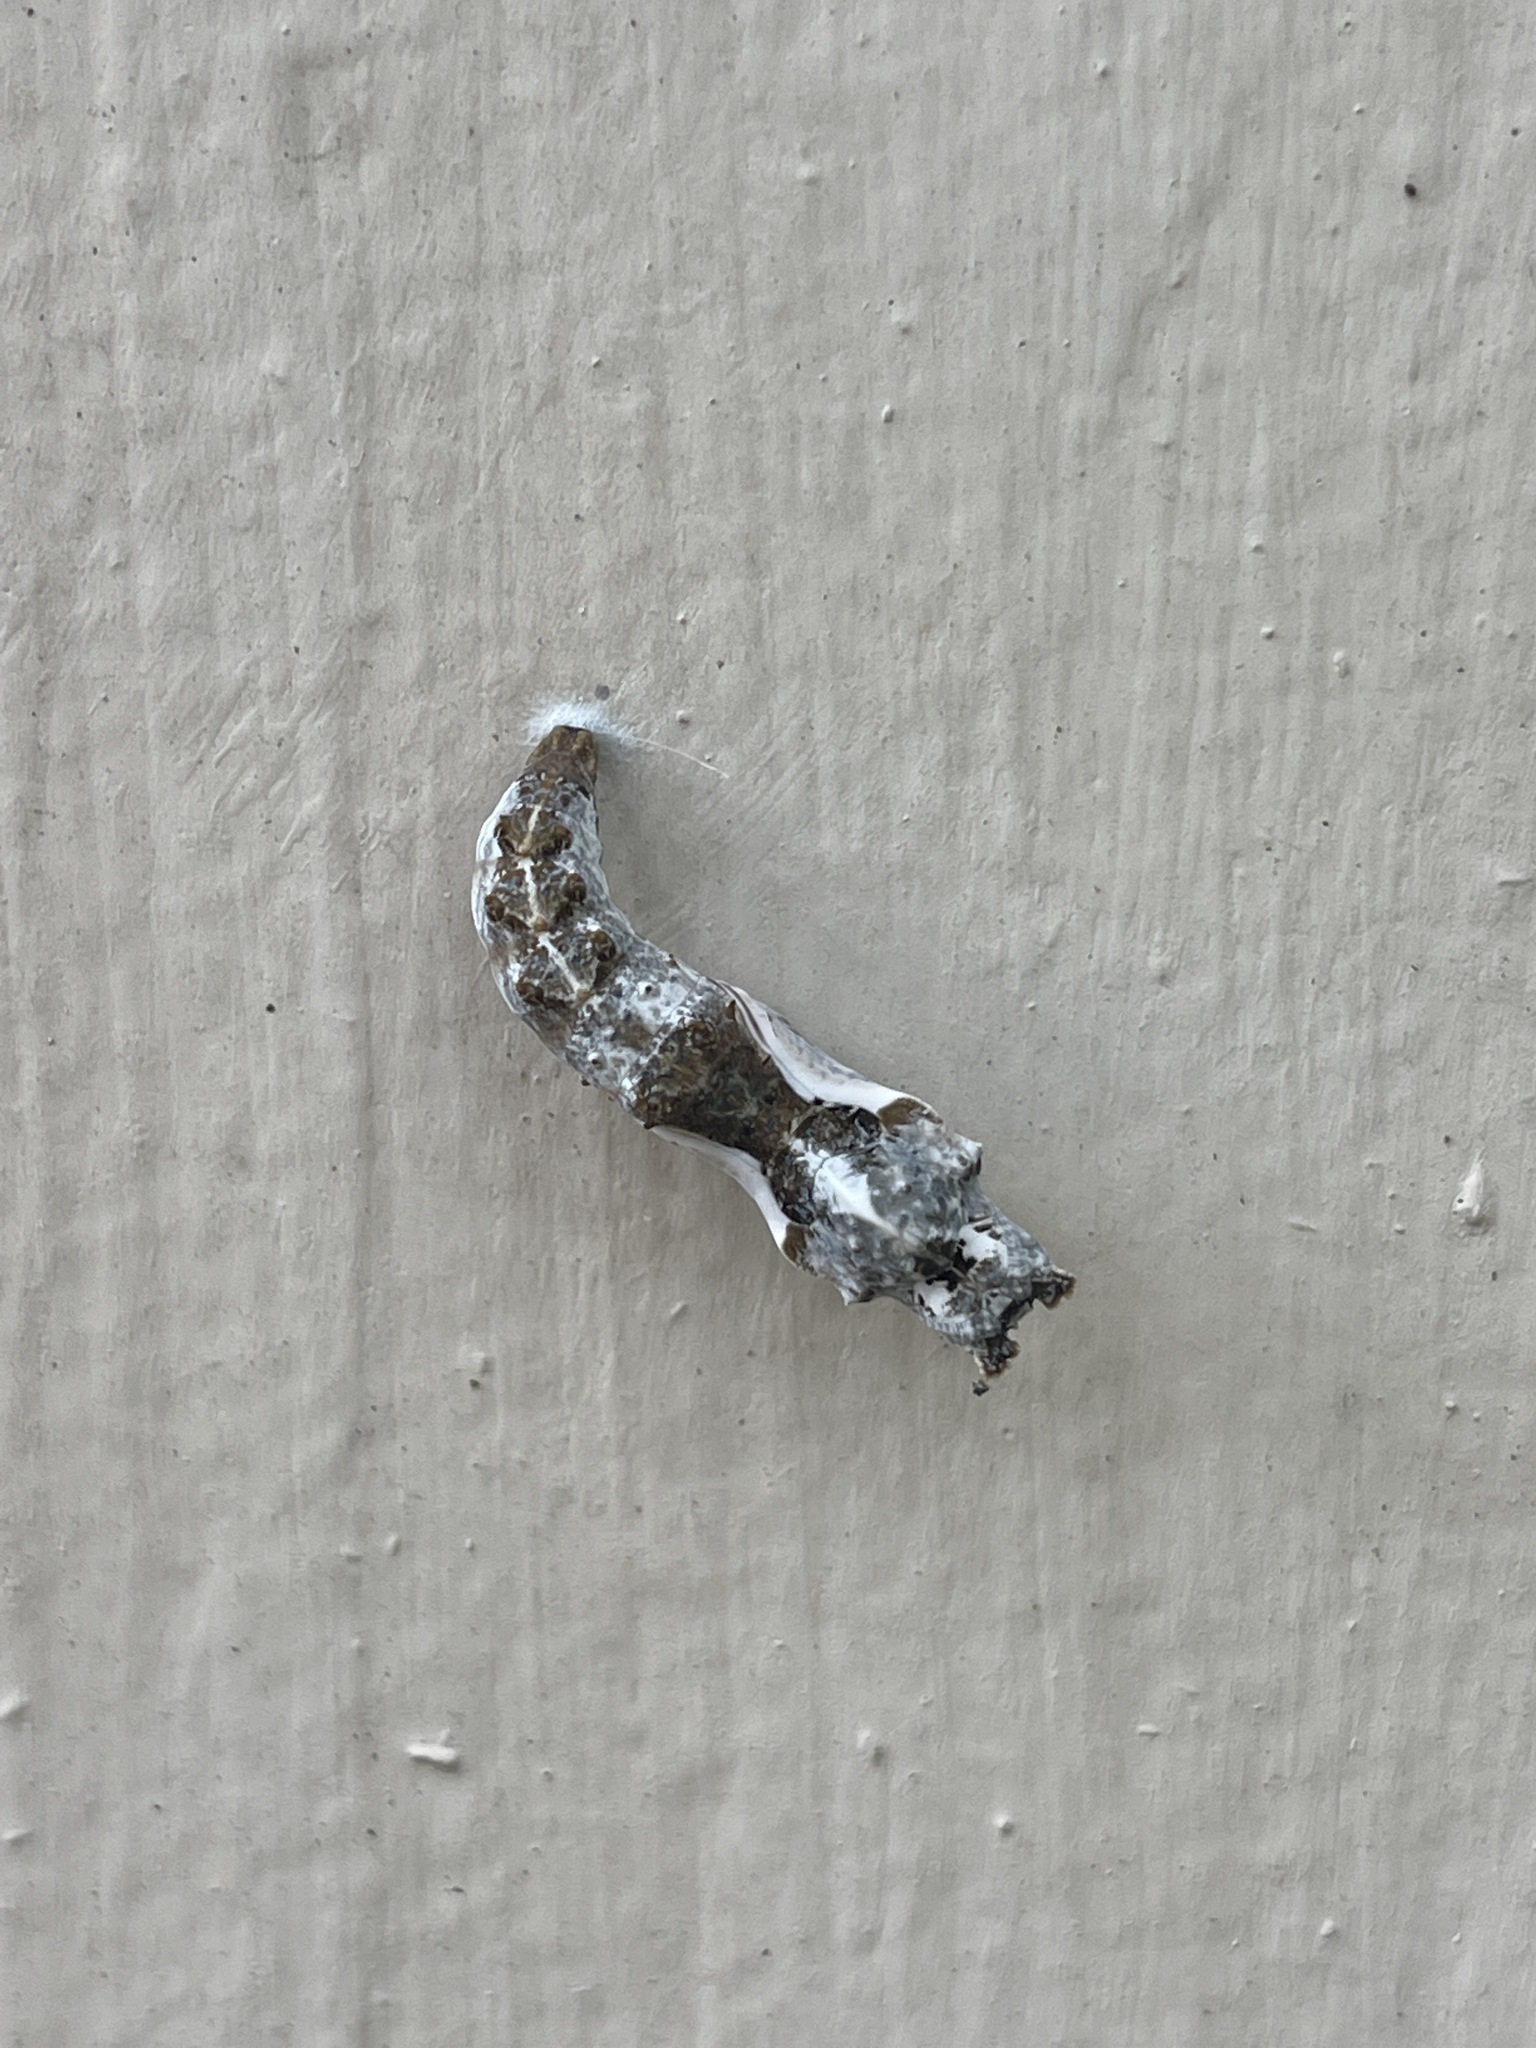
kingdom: Animalia
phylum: Arthropoda
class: Insecta
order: Lepidoptera
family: Nymphalidae
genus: Dione
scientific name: Dione vanillae
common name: Gulf fritillary
